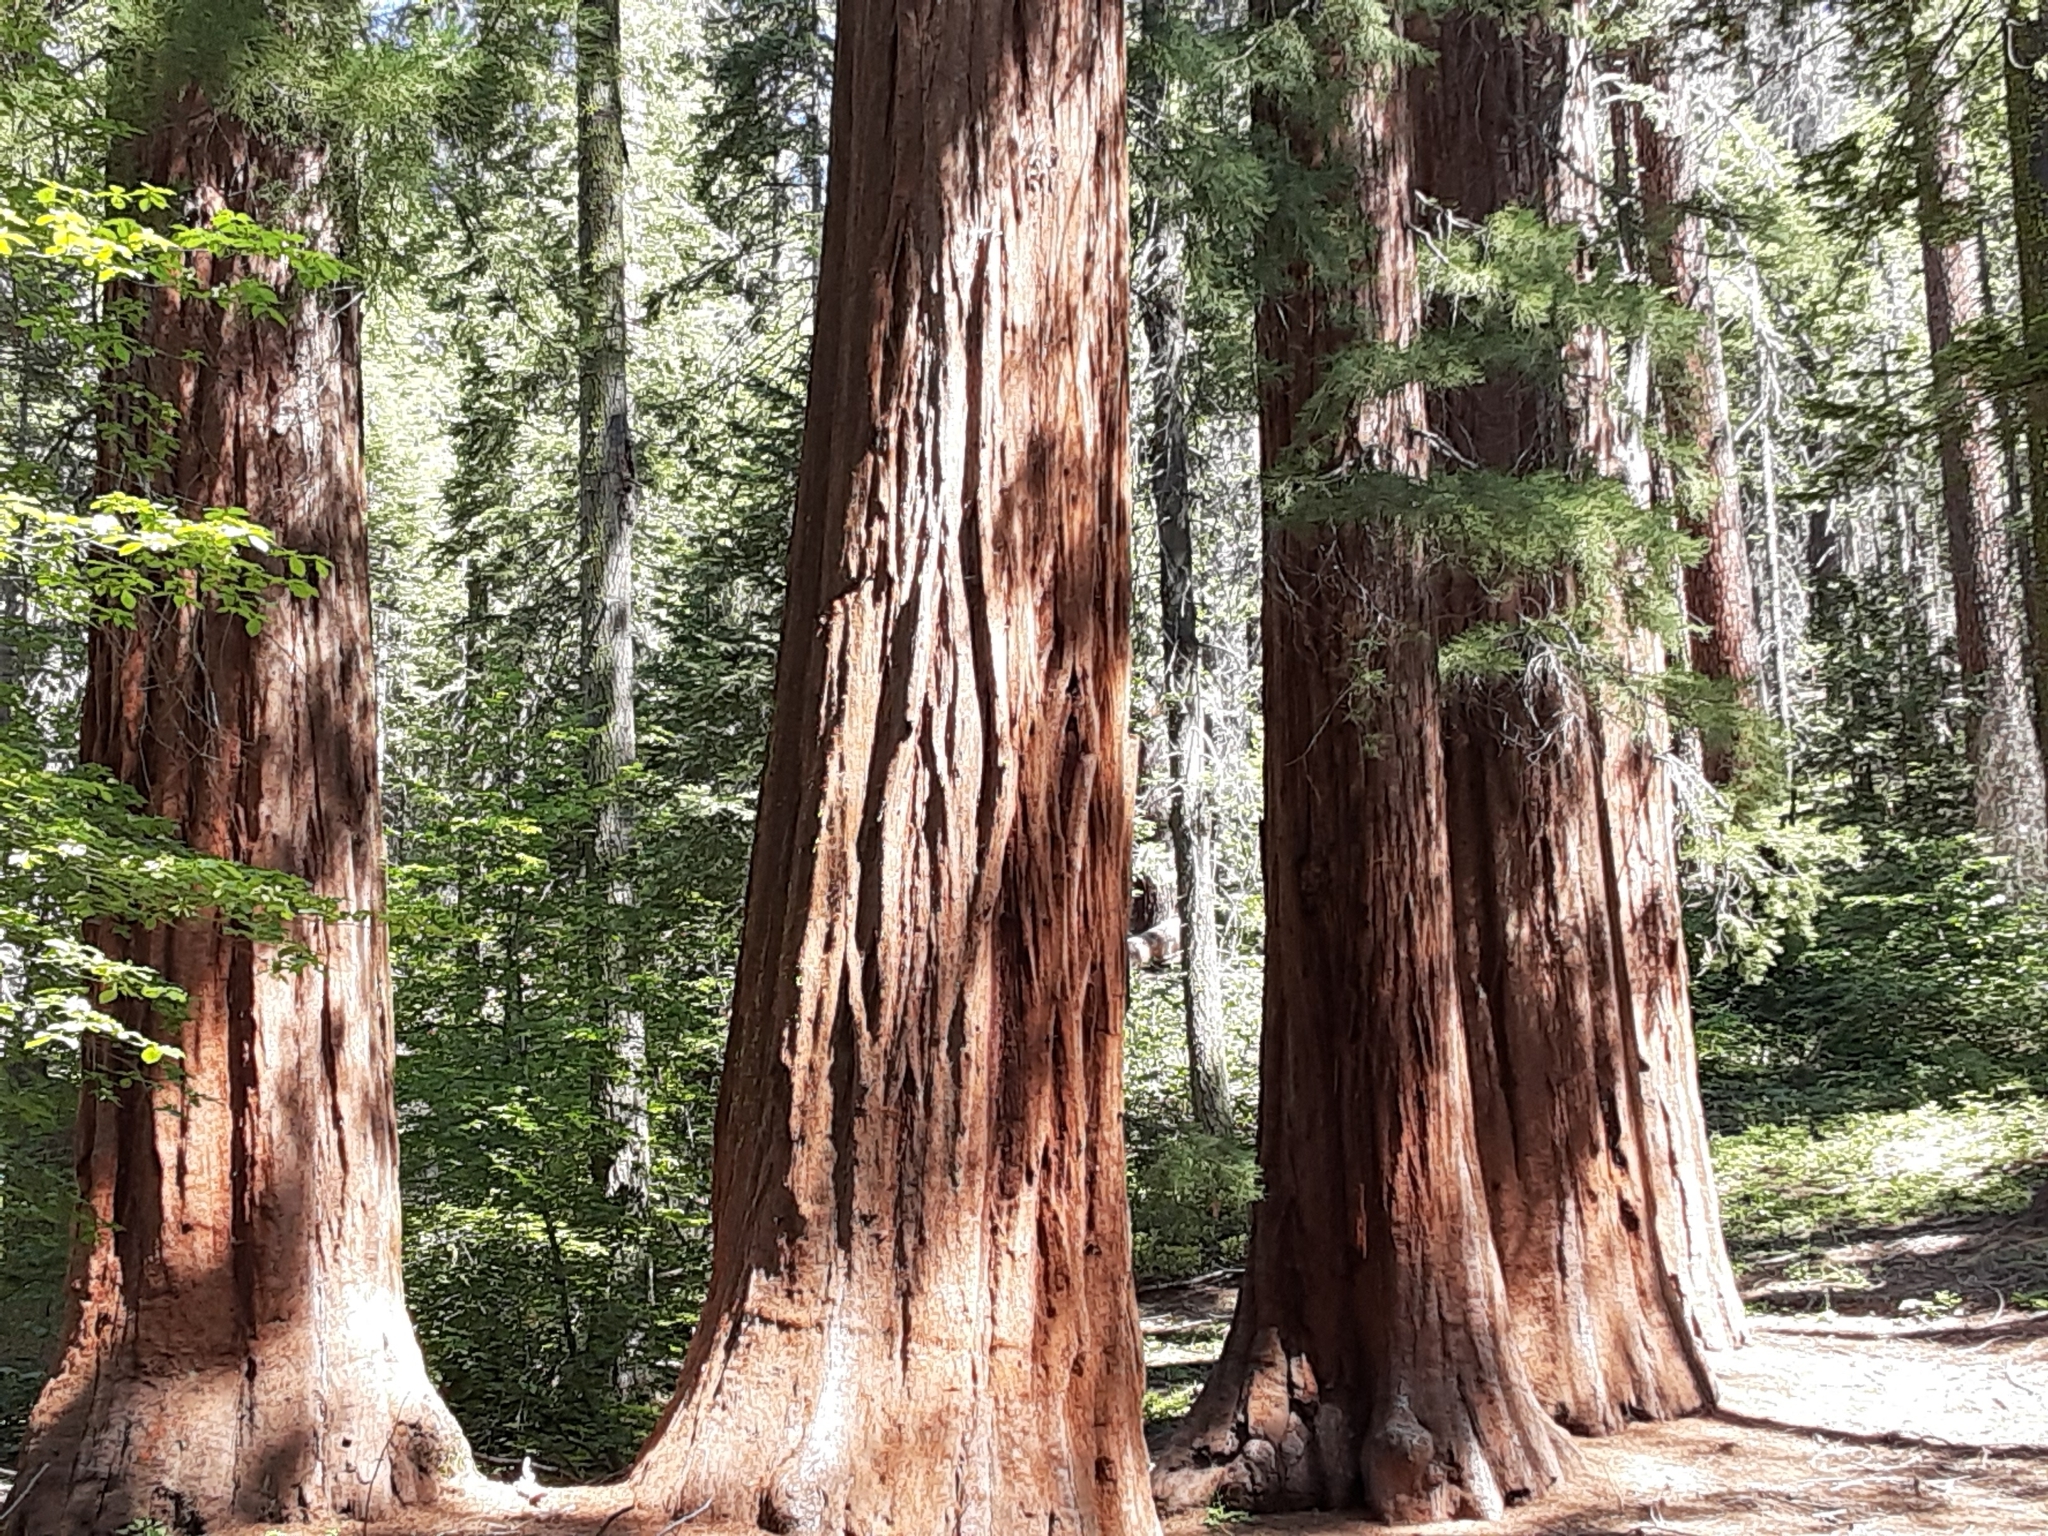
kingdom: Plantae
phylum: Tracheophyta
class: Pinopsida
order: Pinales
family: Cupressaceae
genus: Sequoiadendron
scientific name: Sequoiadendron giganteum
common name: Wellingtonia
